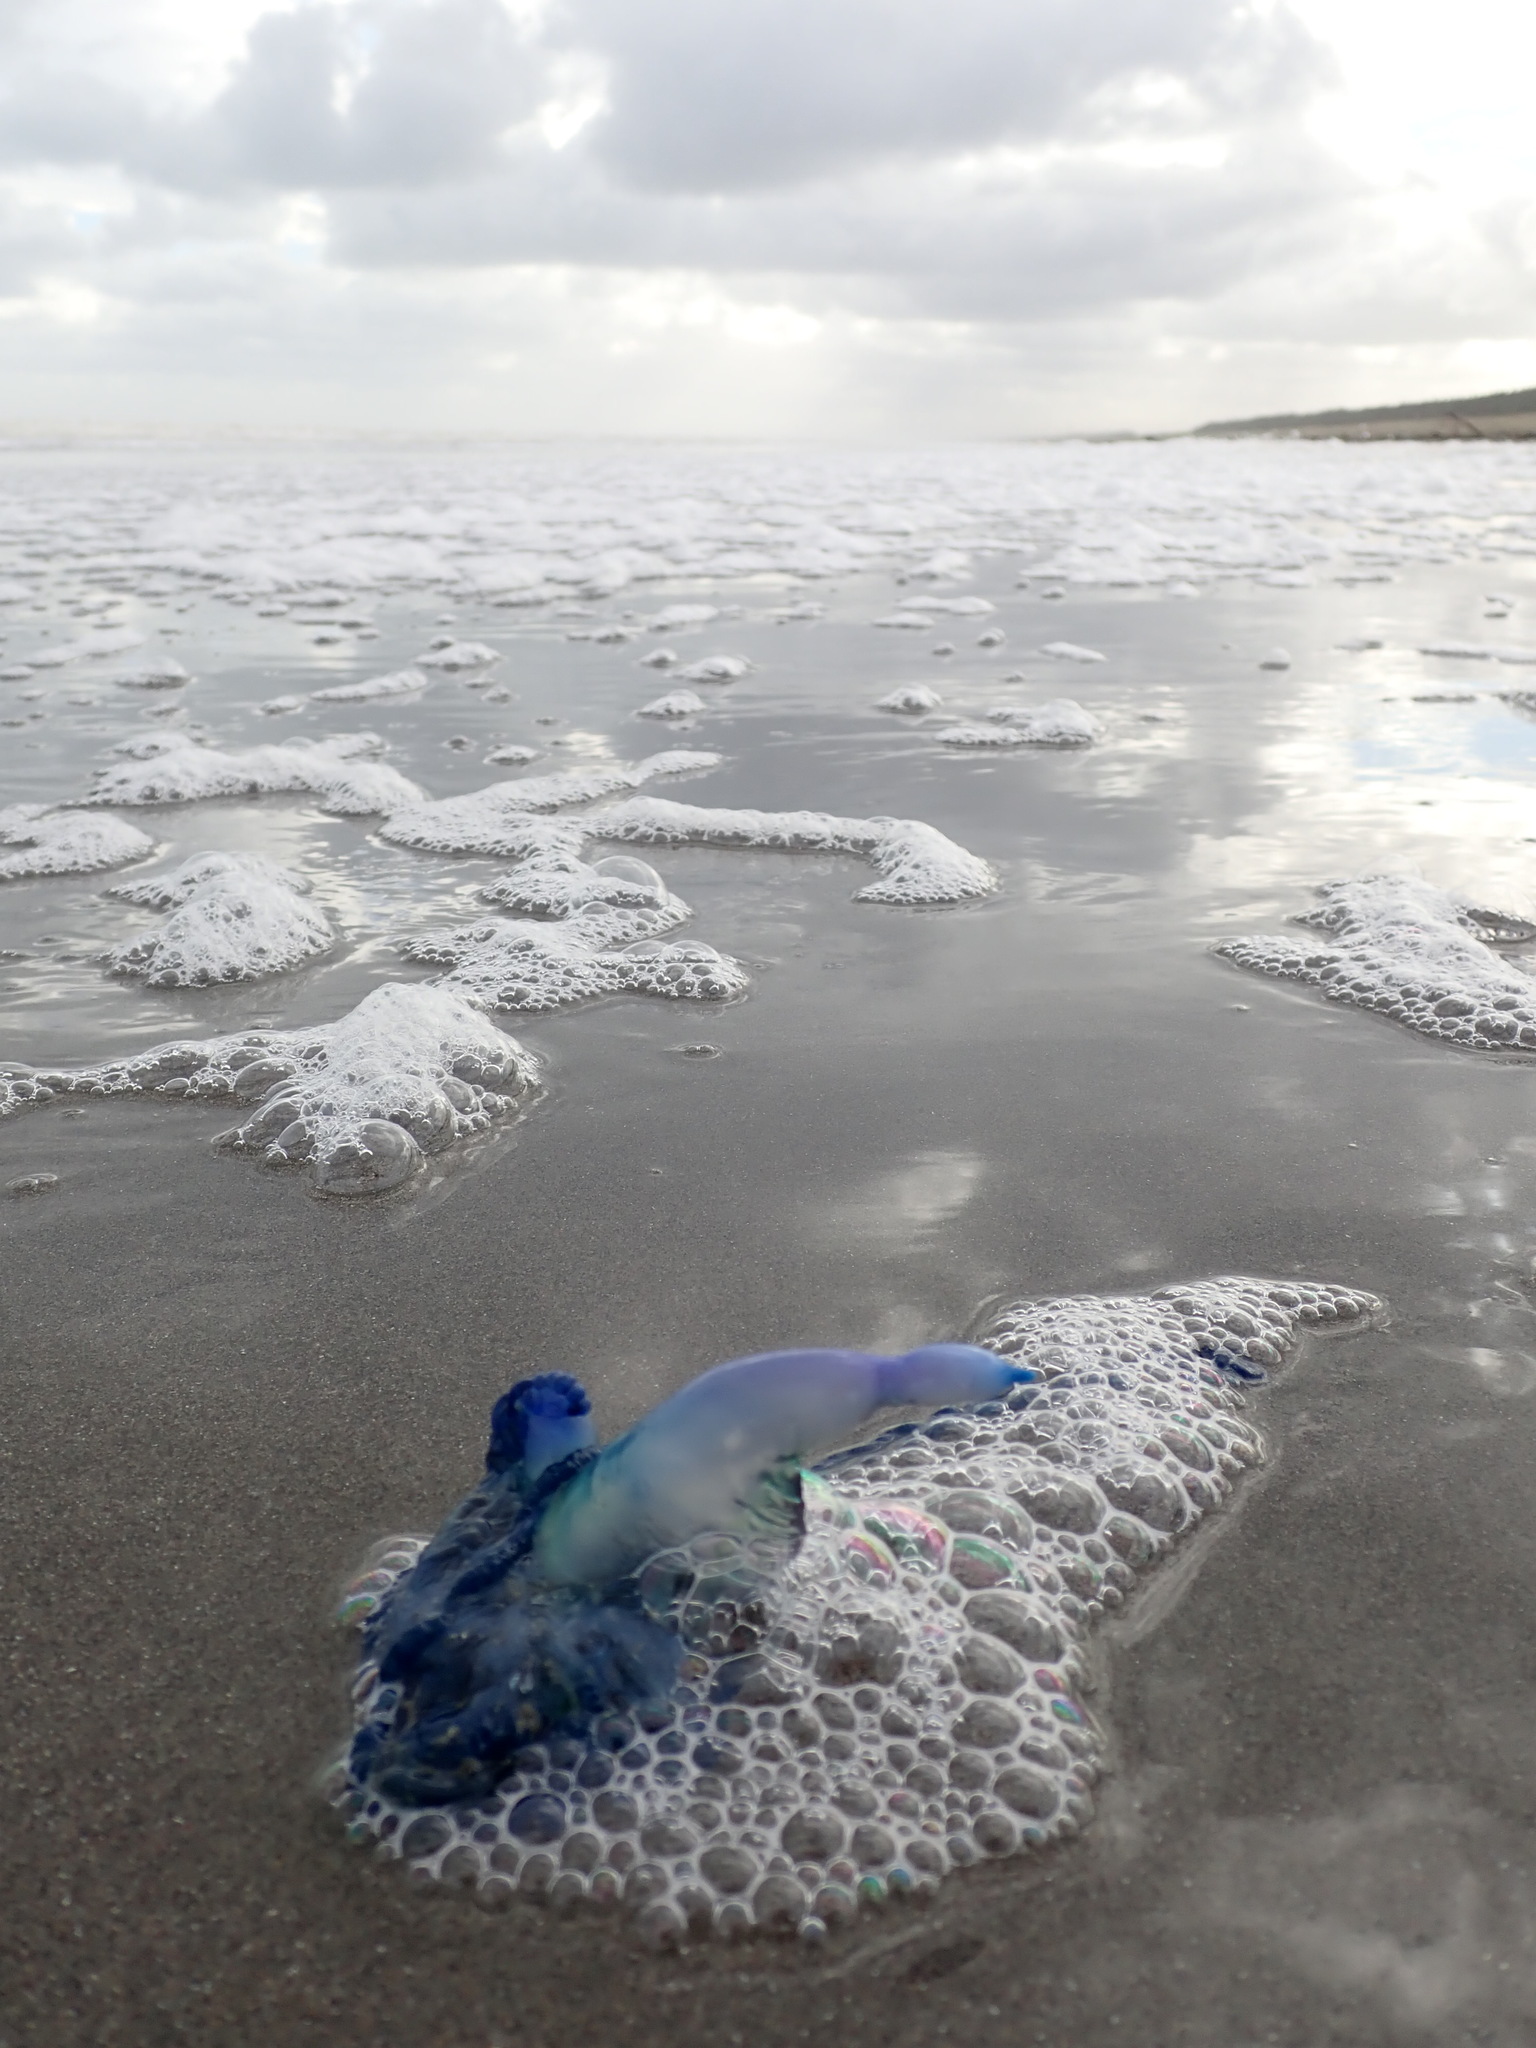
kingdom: Animalia
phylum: Cnidaria
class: Hydrozoa
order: Siphonophorae
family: Physaliidae
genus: Physalia
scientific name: Physalia physalis
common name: Portuguese man-of-war
